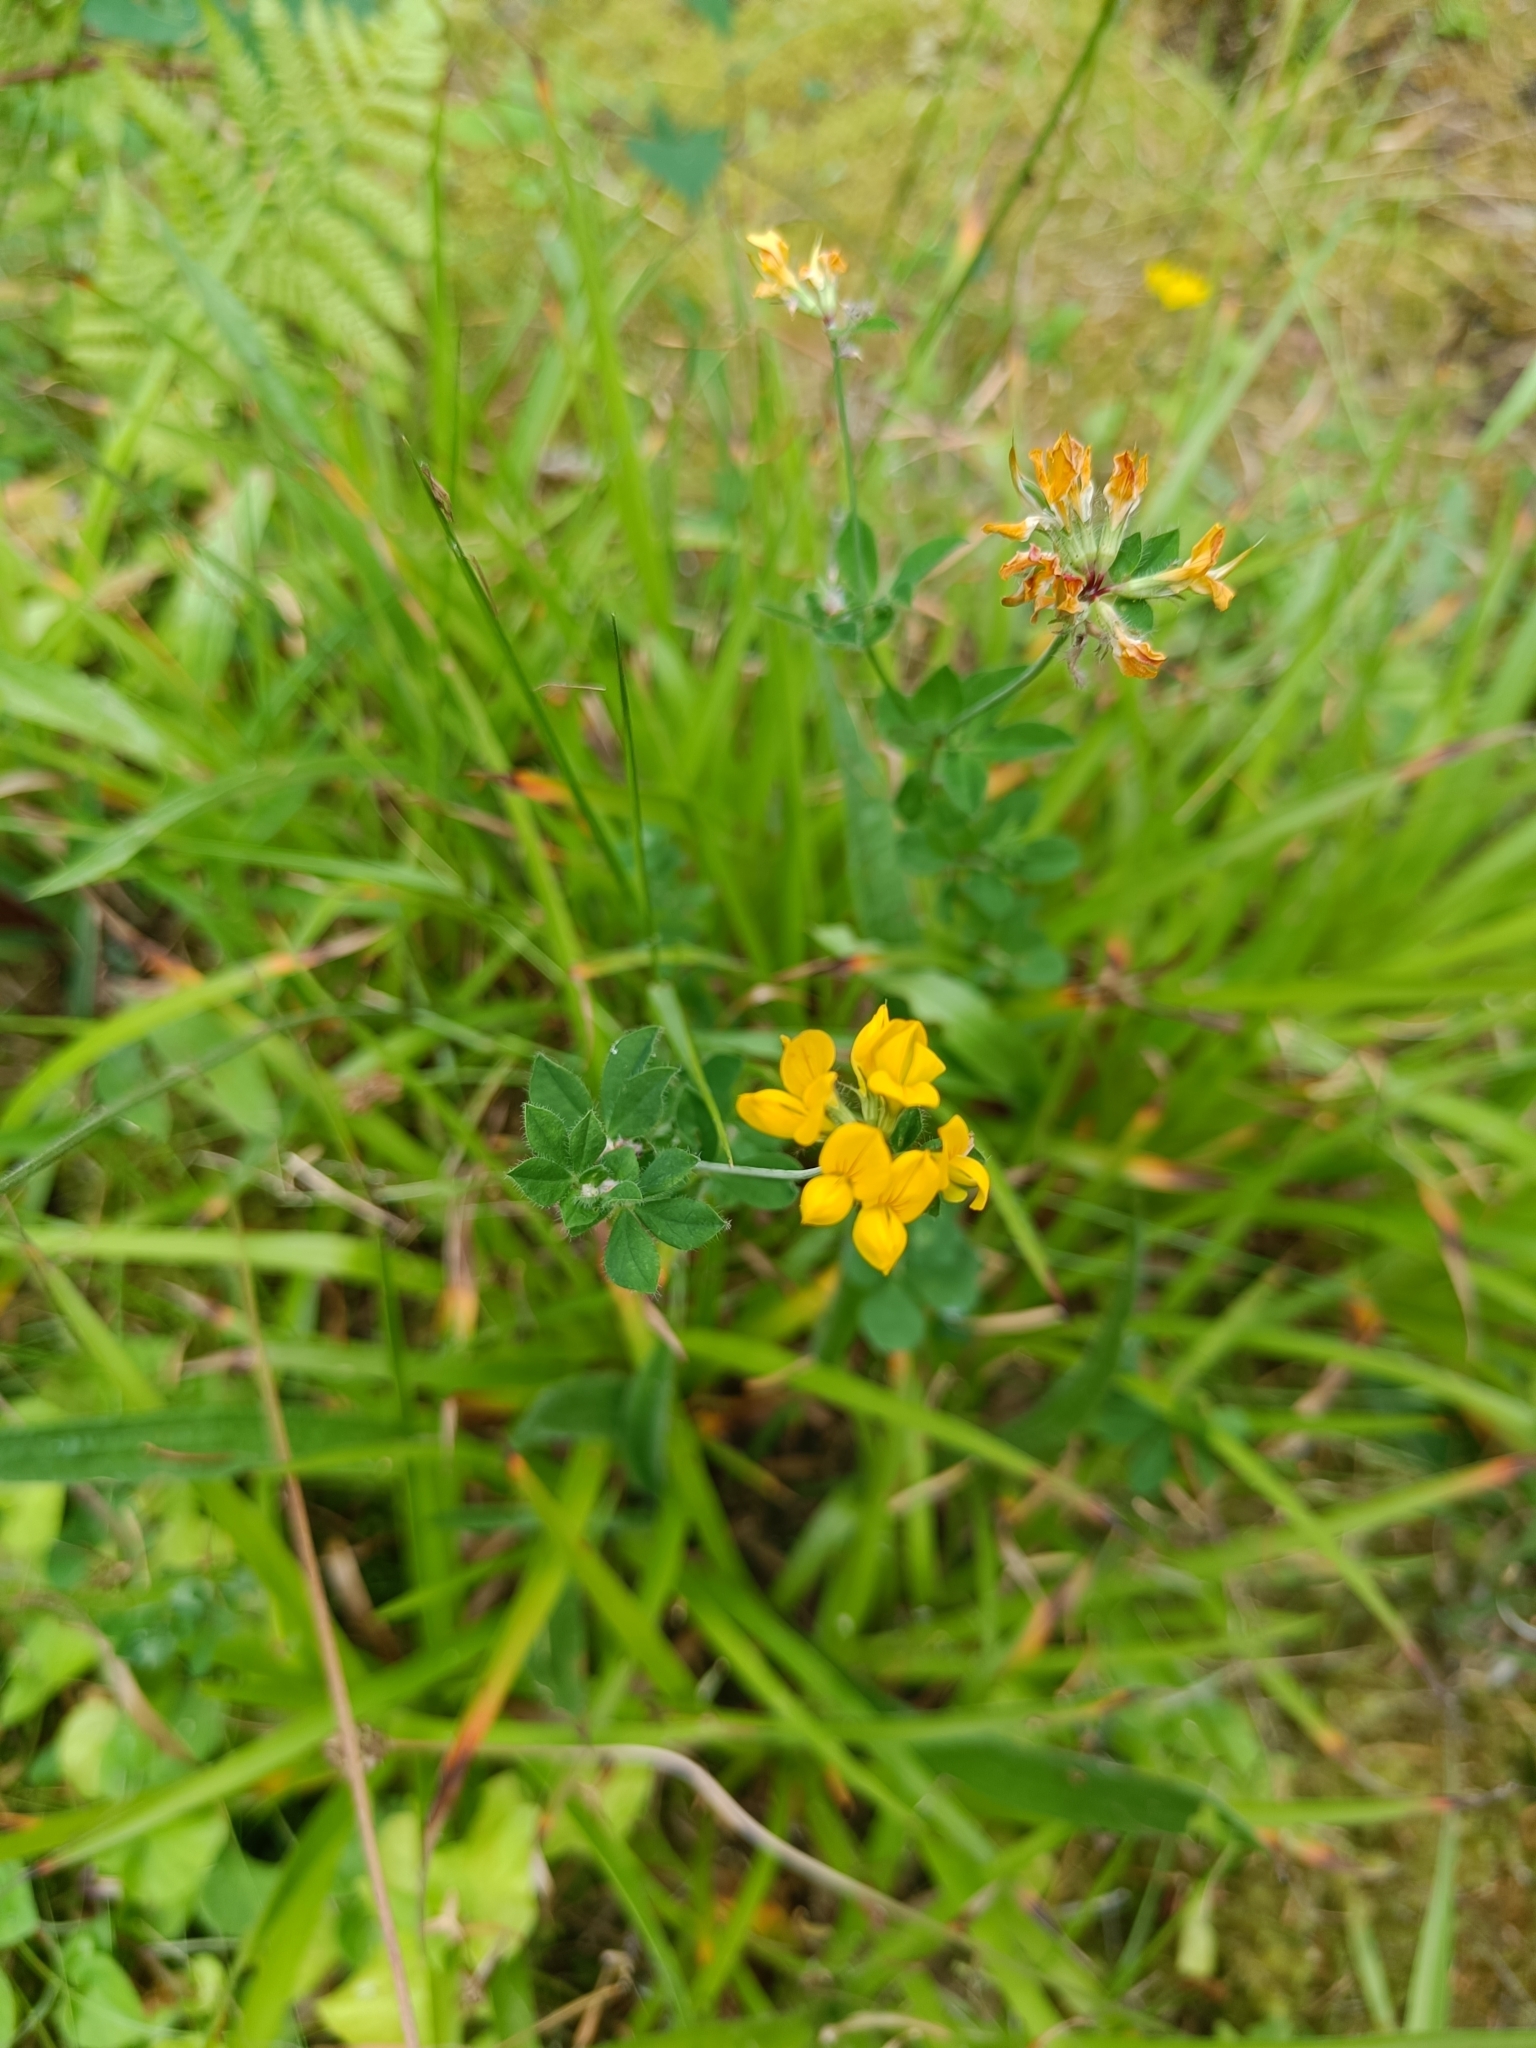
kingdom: Plantae
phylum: Tracheophyta
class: Magnoliopsida
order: Fabales
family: Fabaceae
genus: Lotus
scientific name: Lotus pedunculatus
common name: Greater birdsfoot-trefoil
